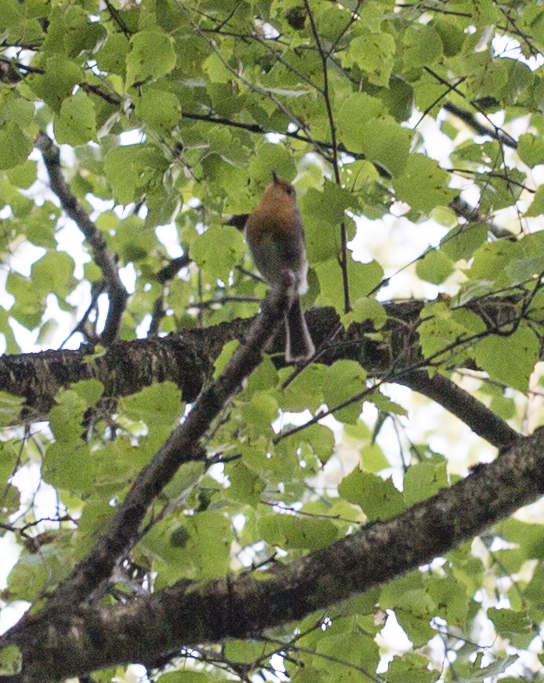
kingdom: Animalia
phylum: Chordata
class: Aves
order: Passeriformes
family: Muscicapidae
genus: Erithacus
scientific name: Erithacus rubecula
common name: European robin
